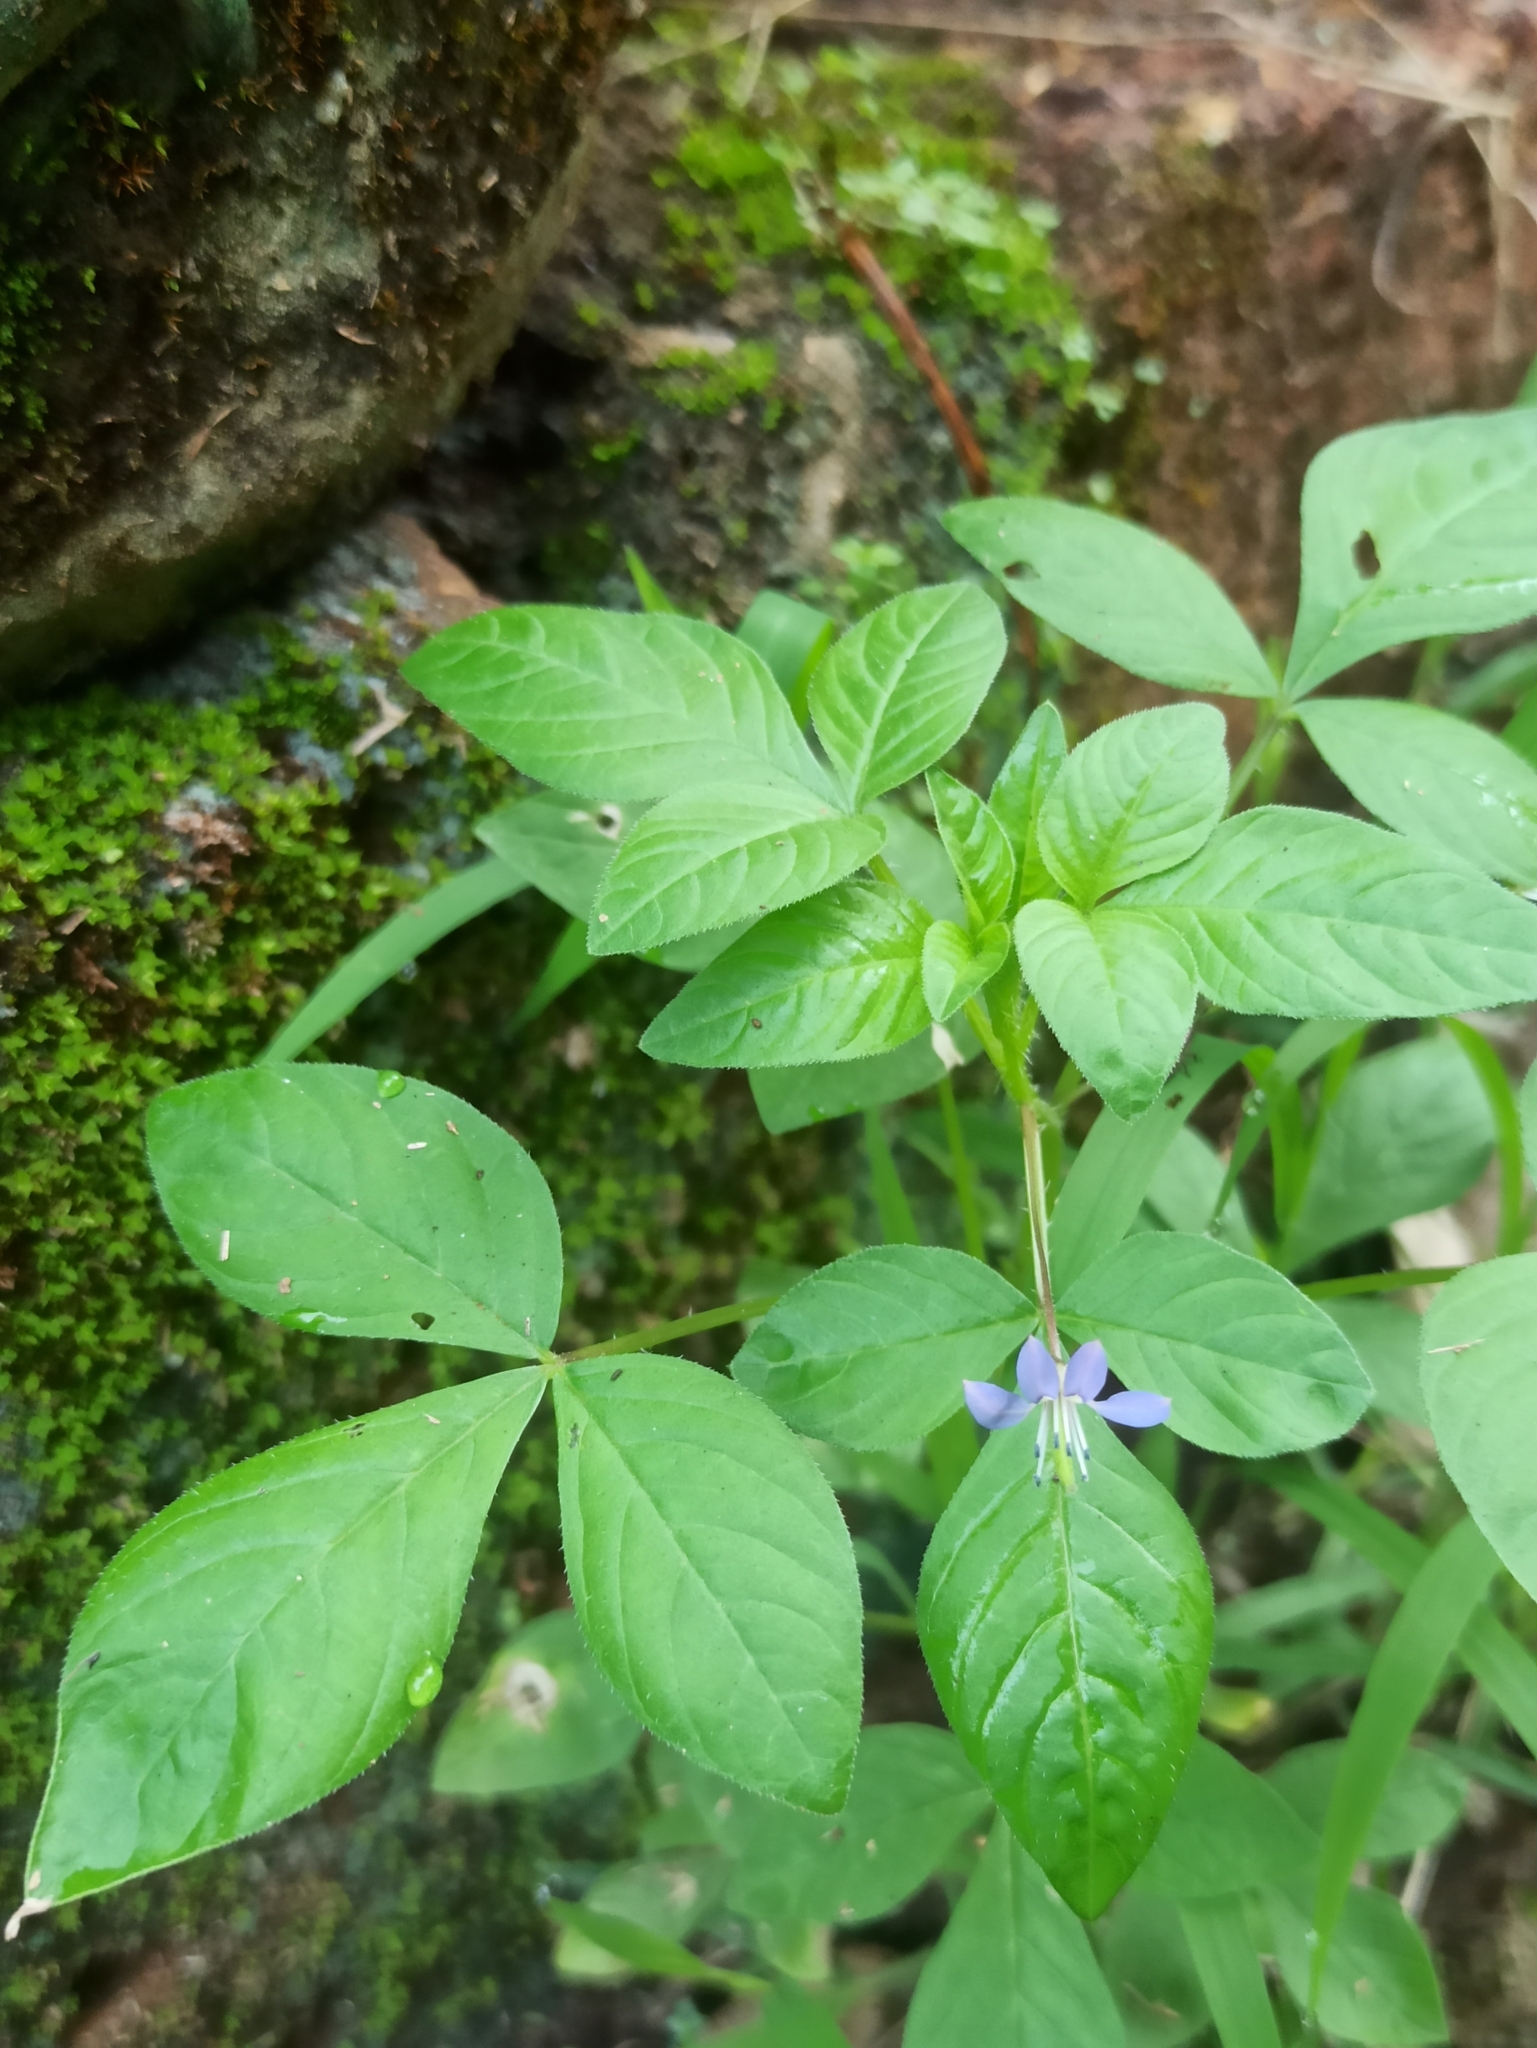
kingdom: Plantae
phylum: Tracheophyta
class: Magnoliopsida
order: Brassicales
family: Cleomaceae
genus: Sieruela
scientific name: Sieruela rutidosperma
